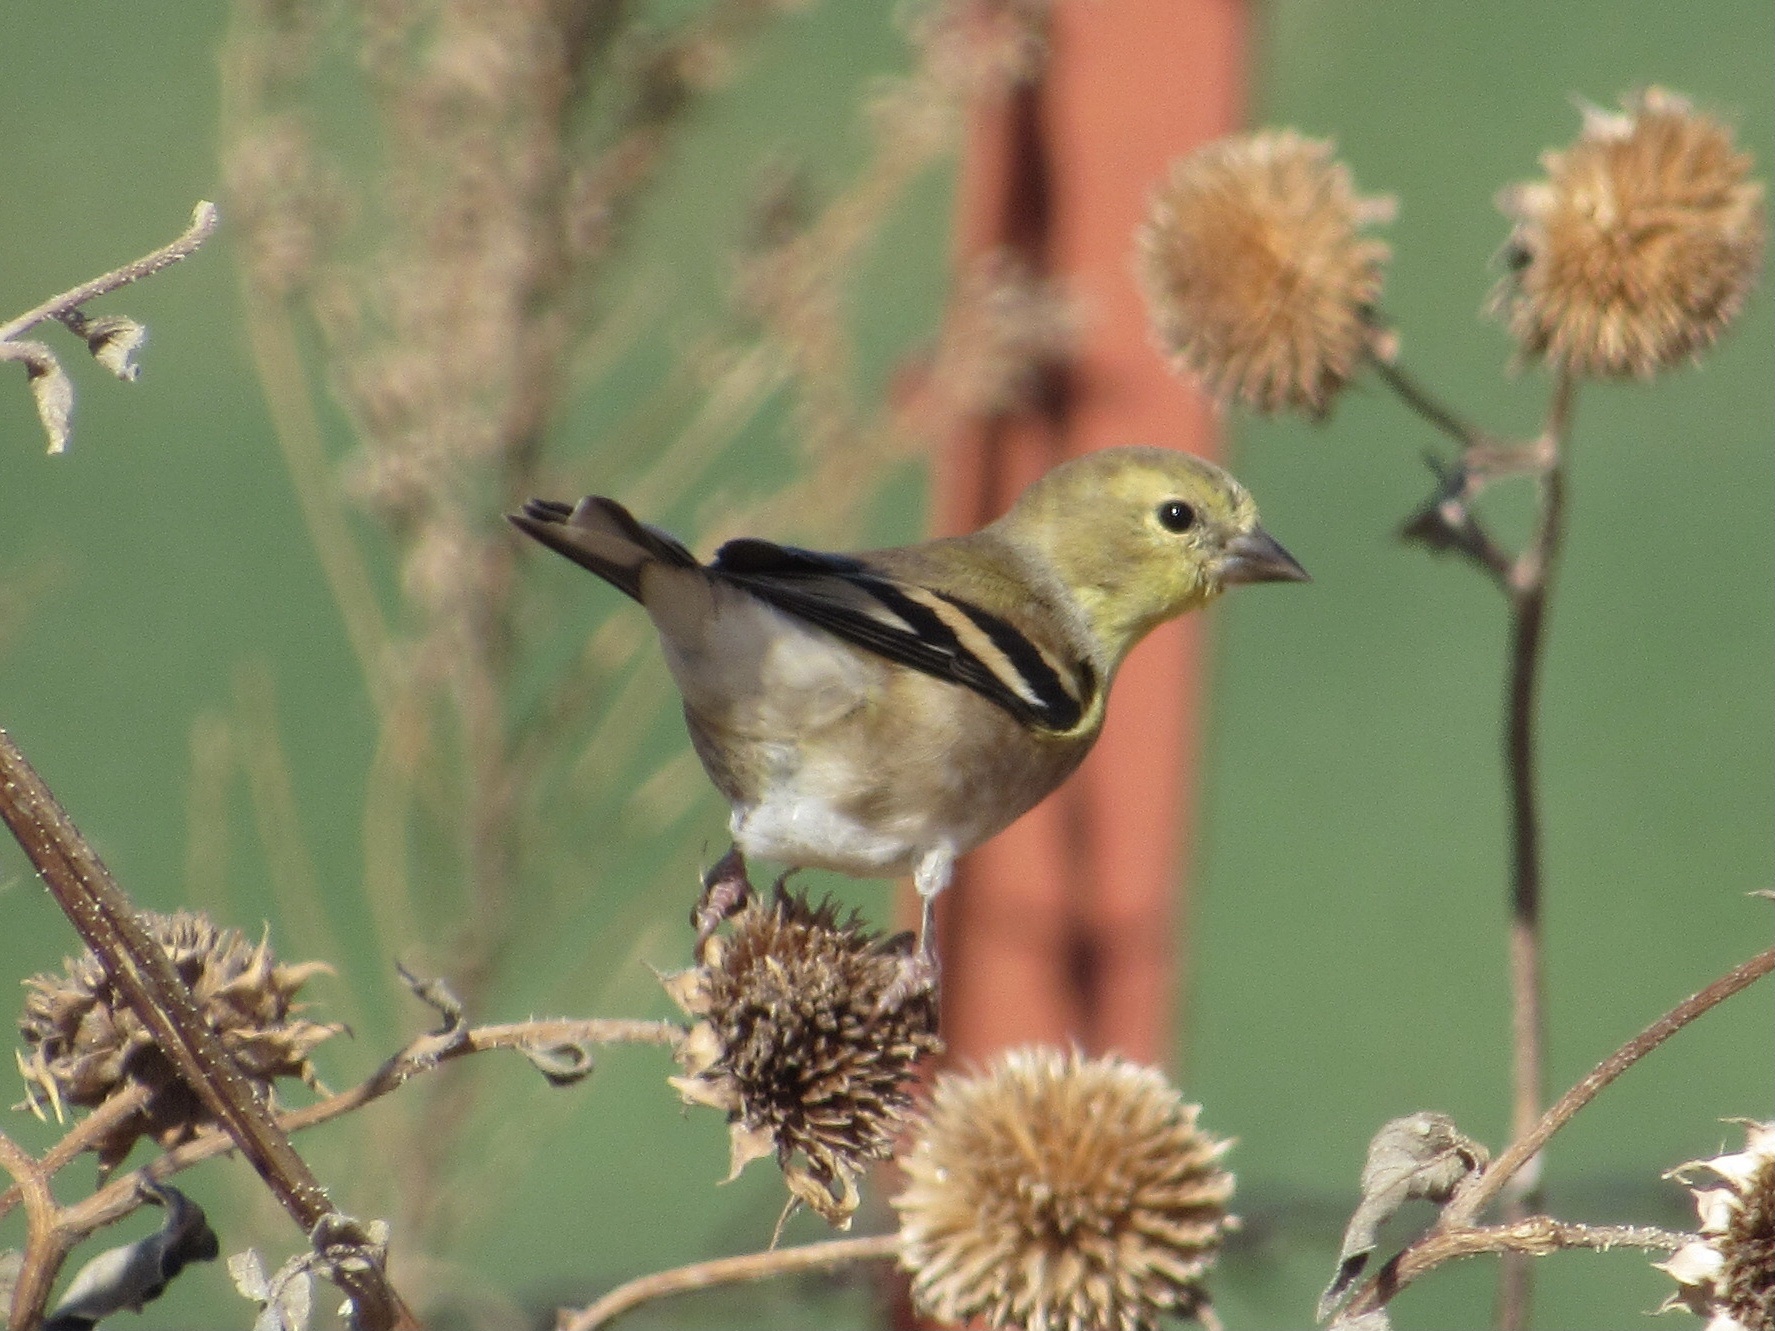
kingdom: Animalia
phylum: Chordata
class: Aves
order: Passeriformes
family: Fringillidae
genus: Spinus
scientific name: Spinus tristis
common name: American goldfinch
